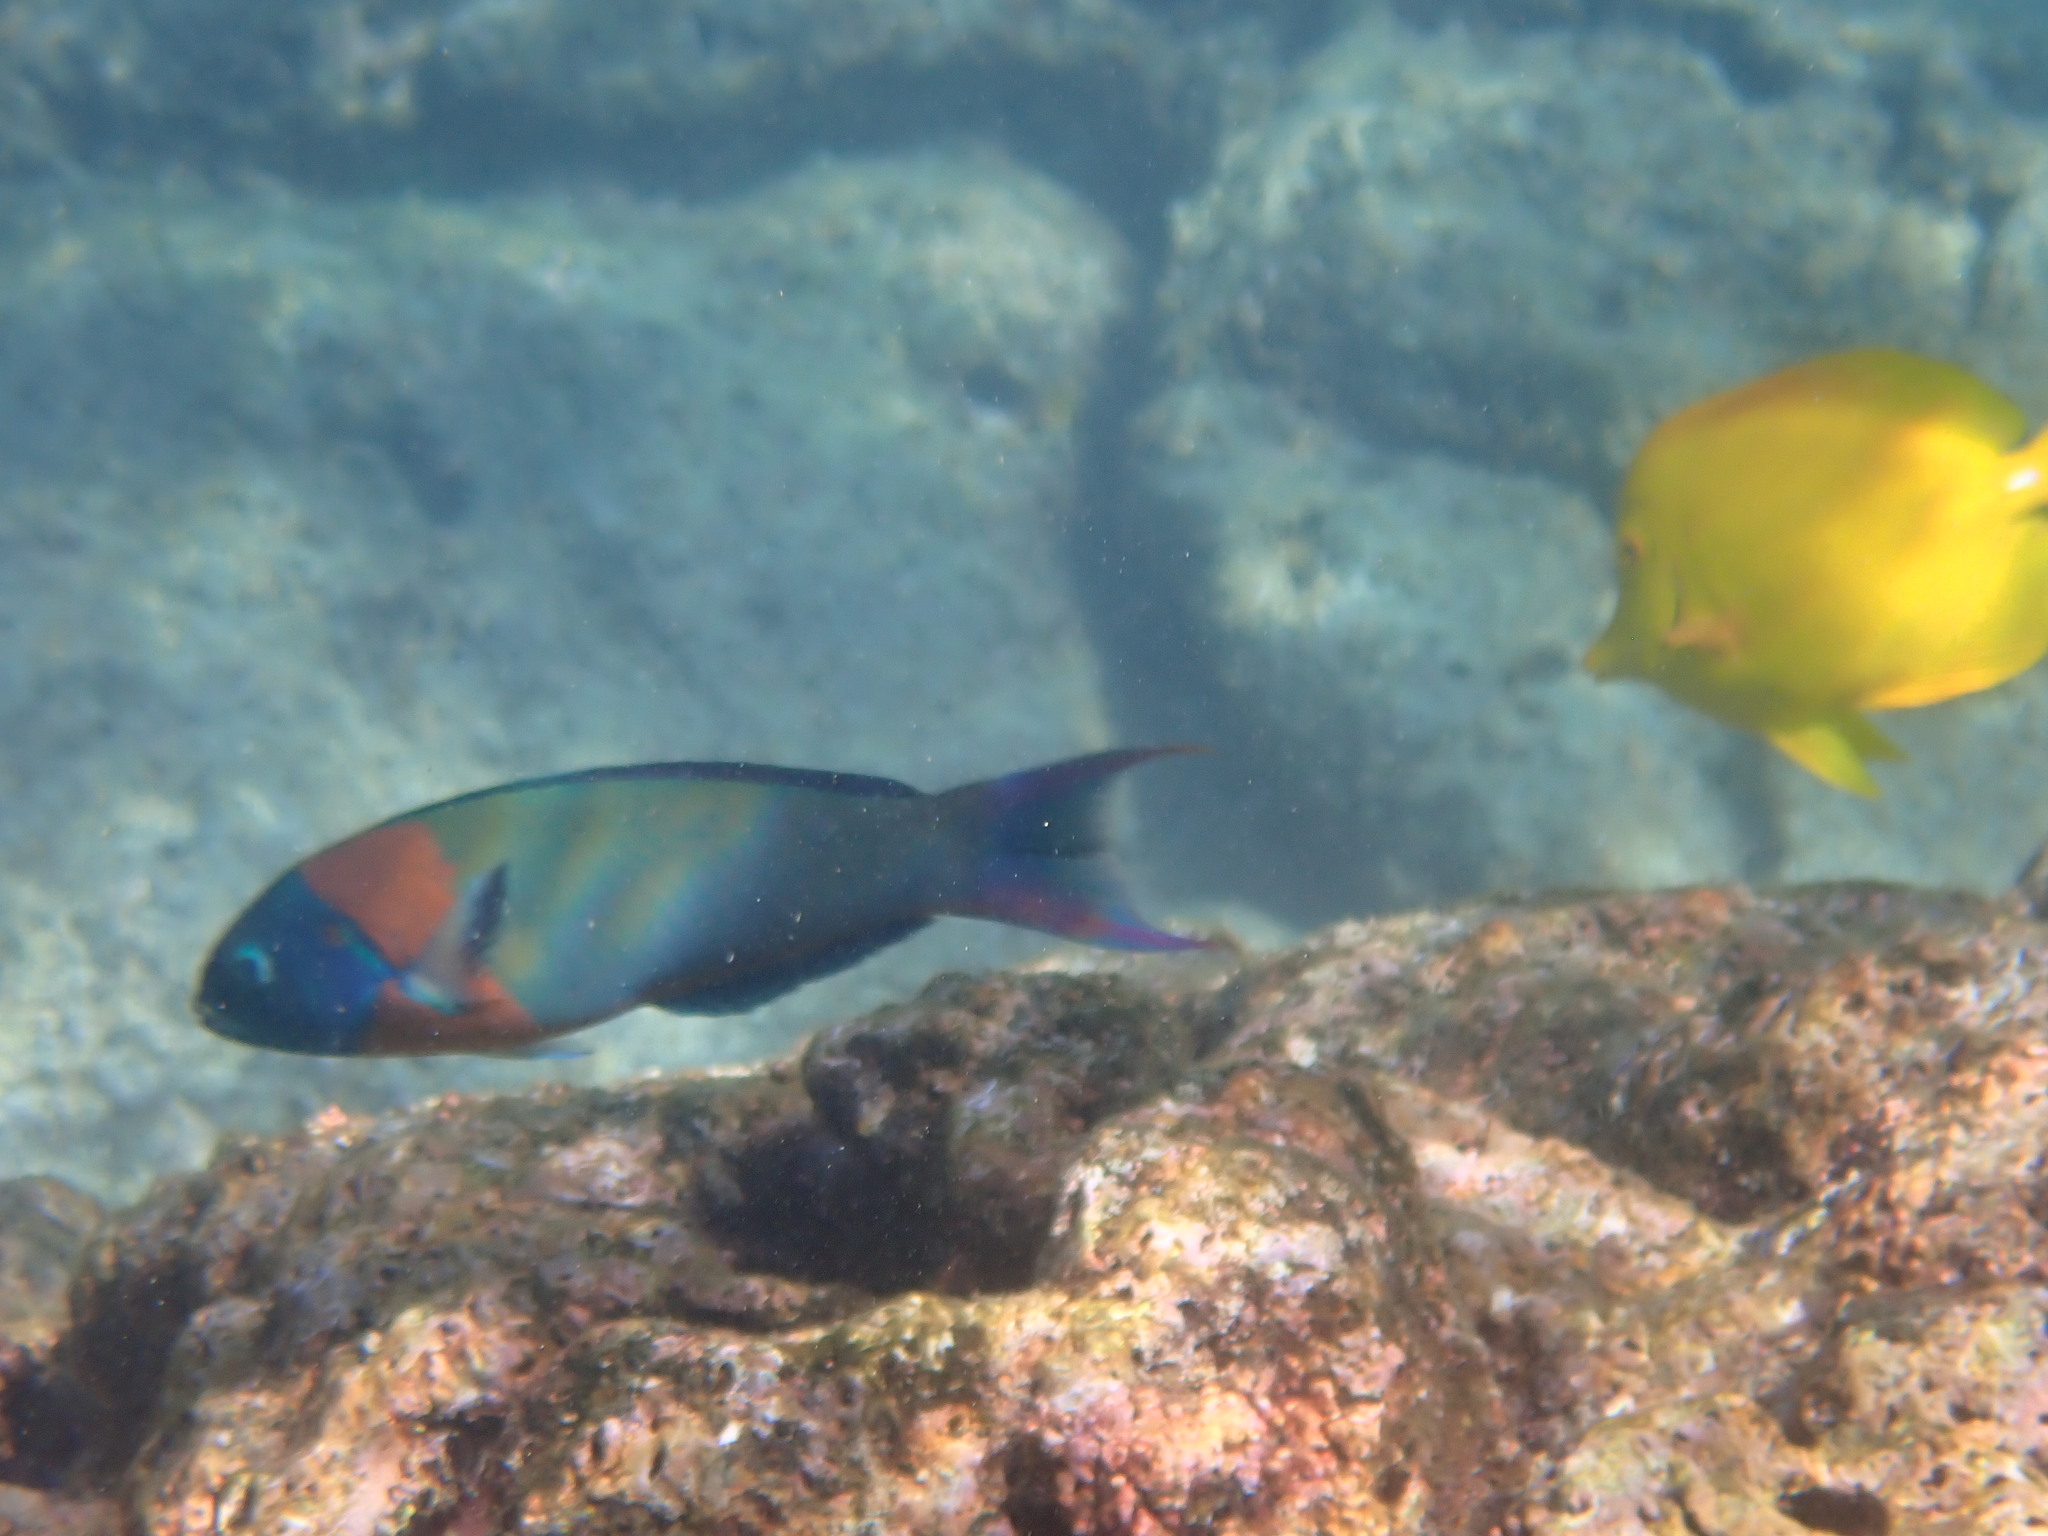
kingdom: Animalia
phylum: Chordata
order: Perciformes
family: Labridae
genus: Thalassoma
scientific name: Thalassoma duperrey
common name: Saddle wrasse
